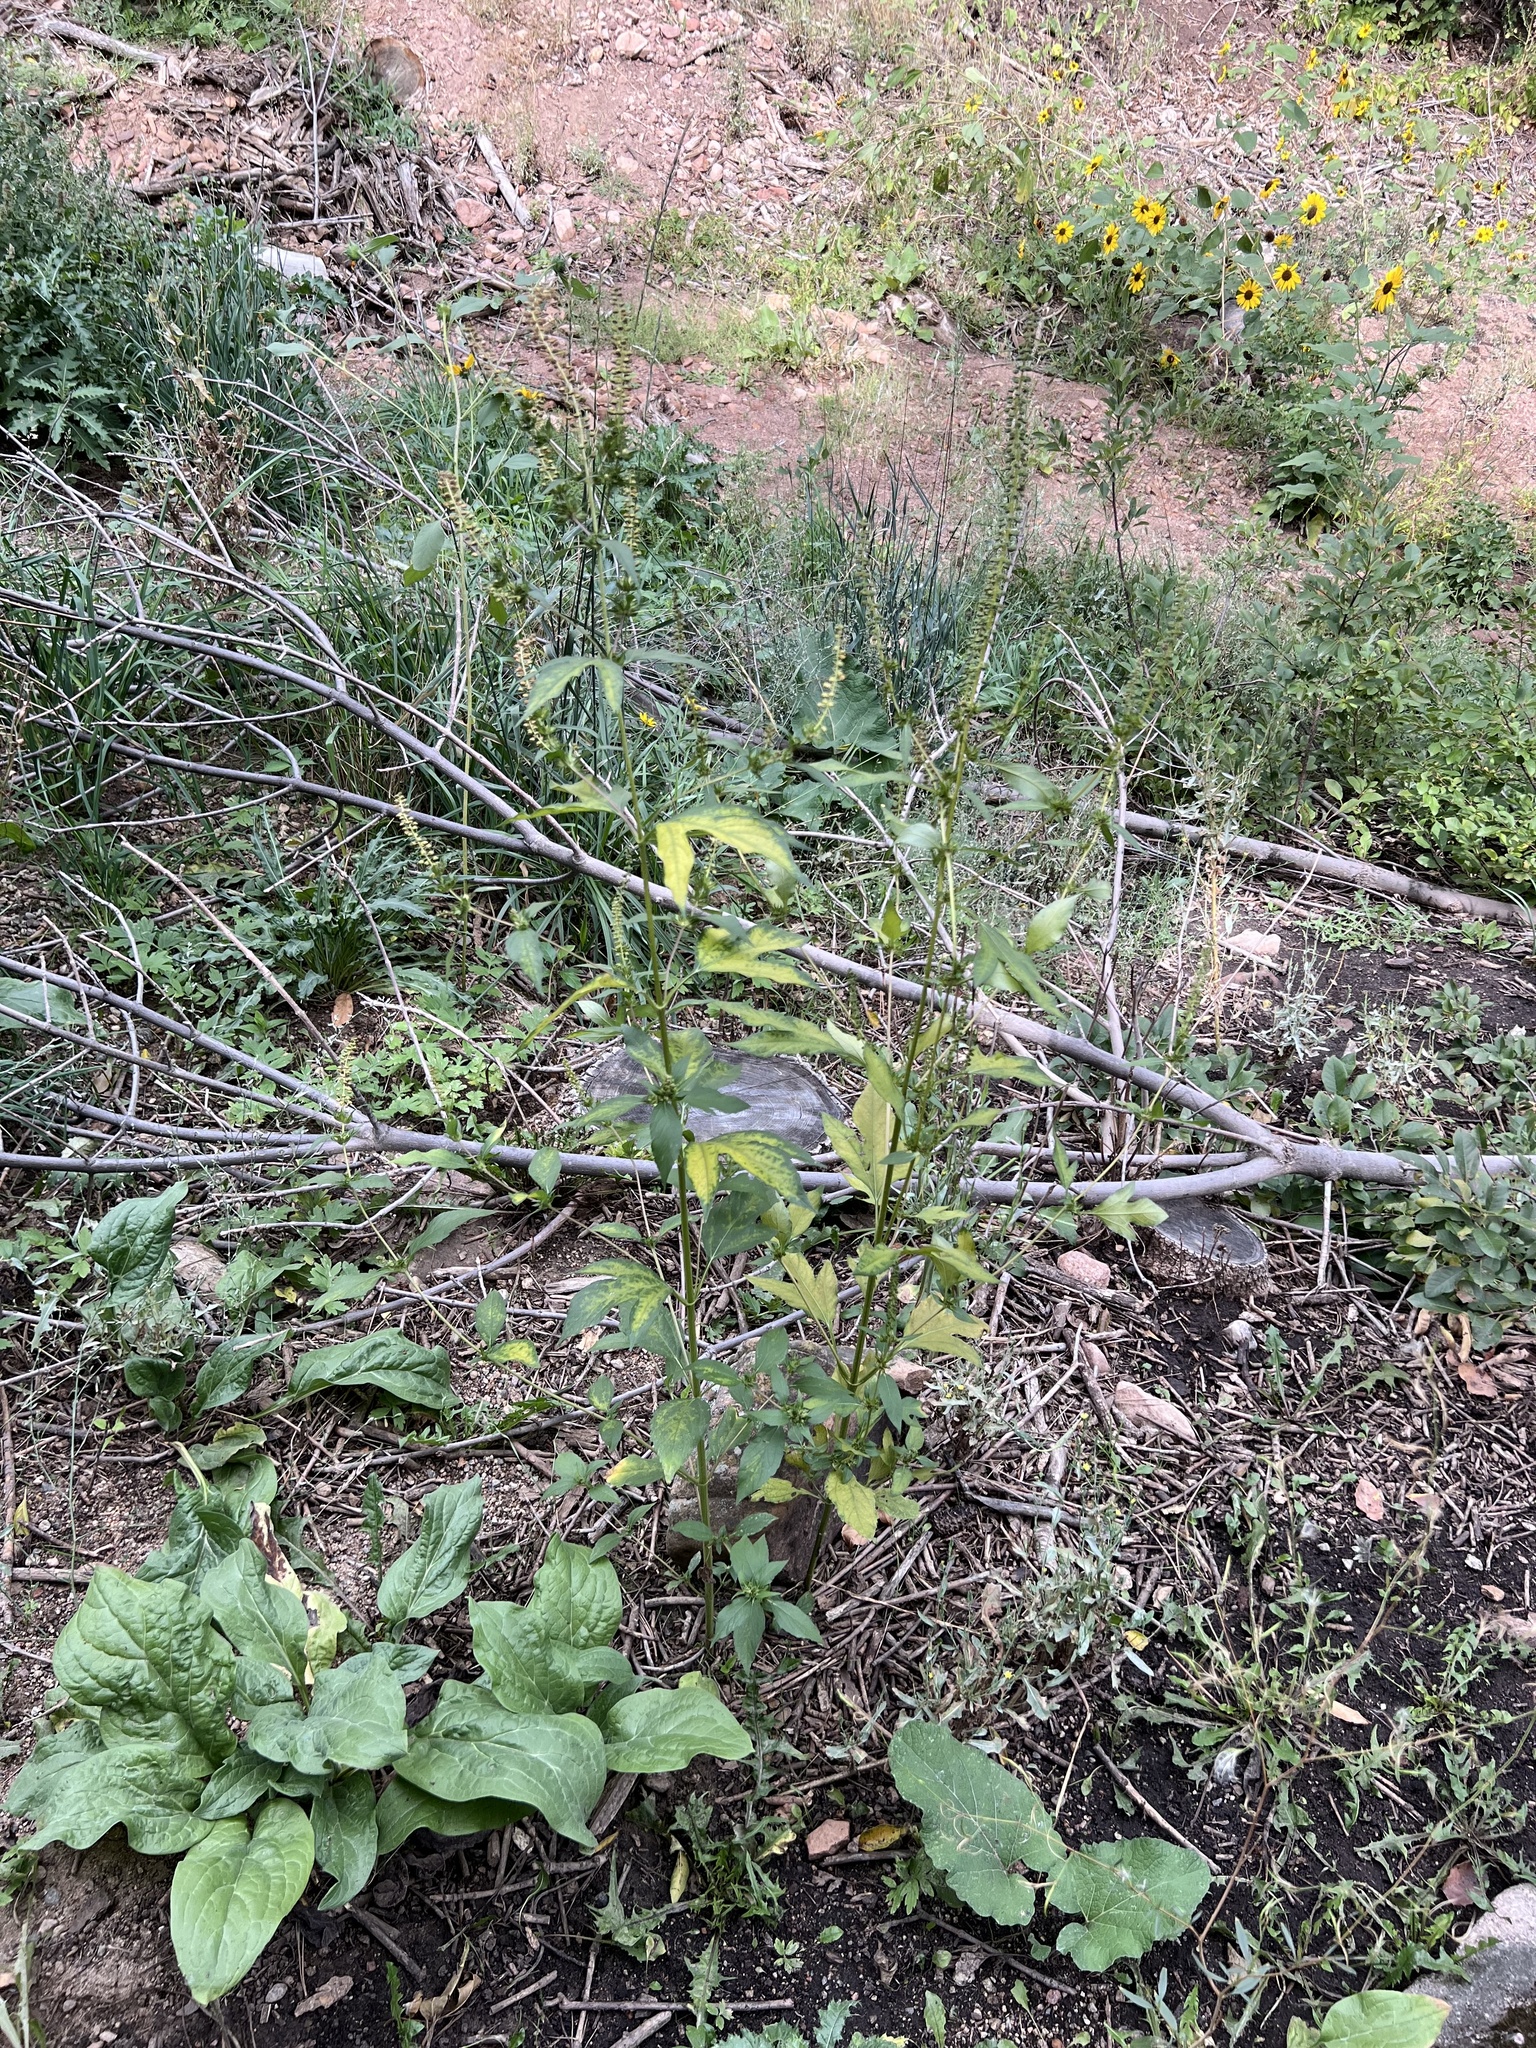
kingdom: Plantae
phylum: Tracheophyta
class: Magnoliopsida
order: Asterales
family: Asteraceae
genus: Ambrosia
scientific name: Ambrosia trifida
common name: Giant ragweed
